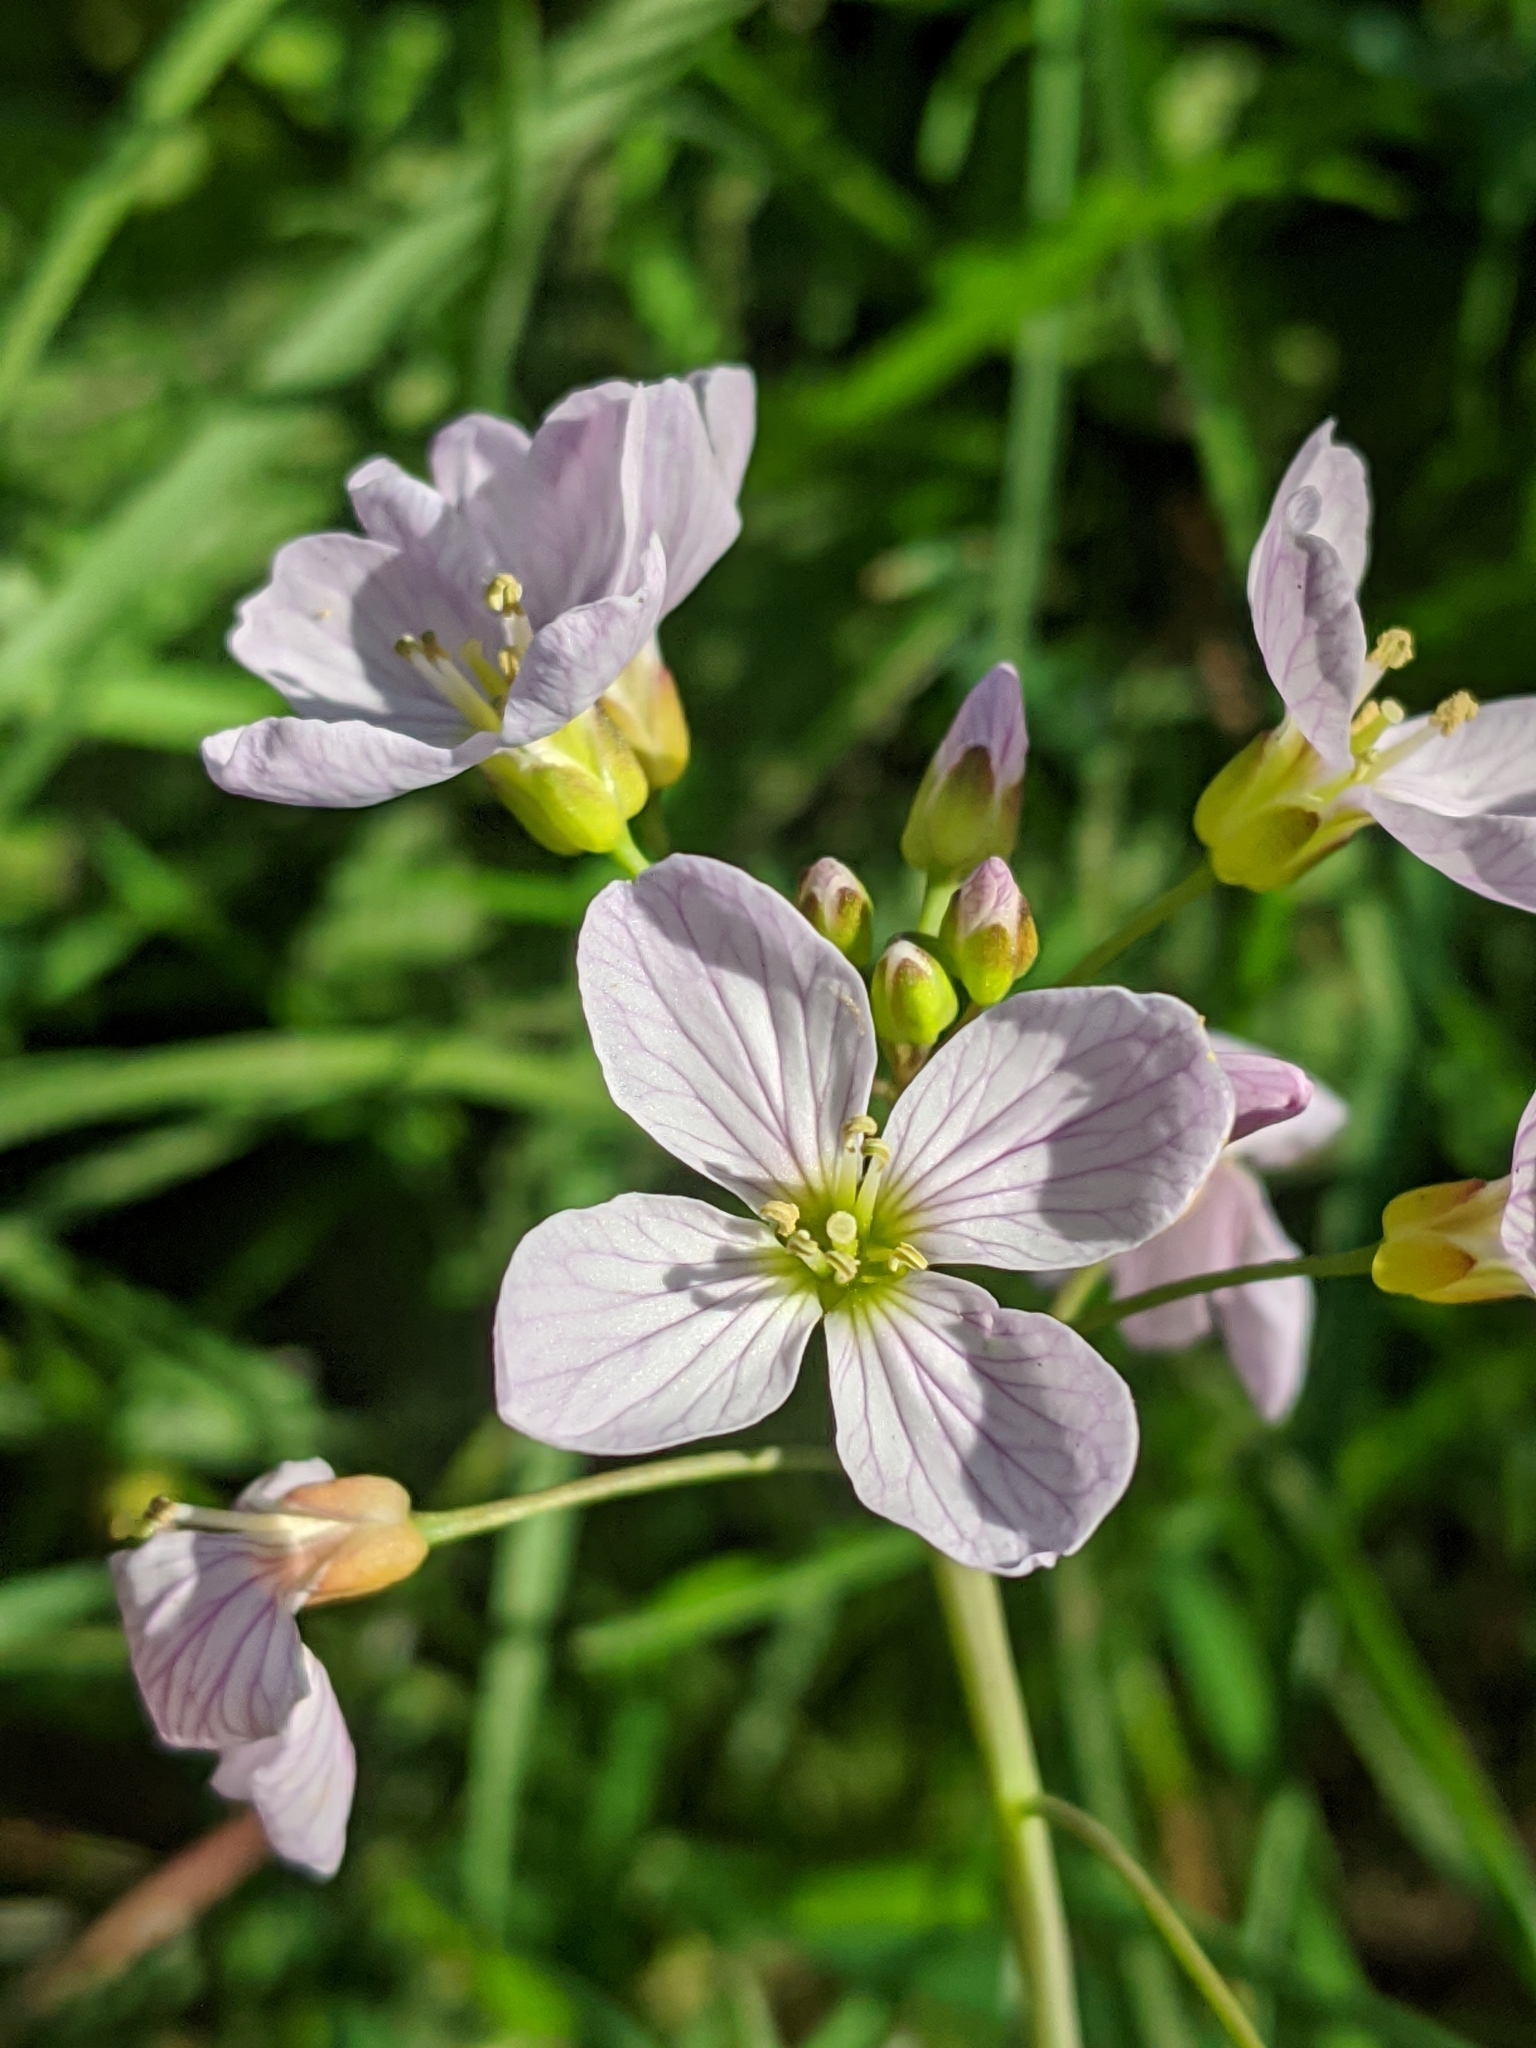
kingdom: Plantae
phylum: Tracheophyta
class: Magnoliopsida
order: Brassicales
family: Brassicaceae
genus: Cardamine
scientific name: Cardamine pratensis
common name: Cuckoo flower
